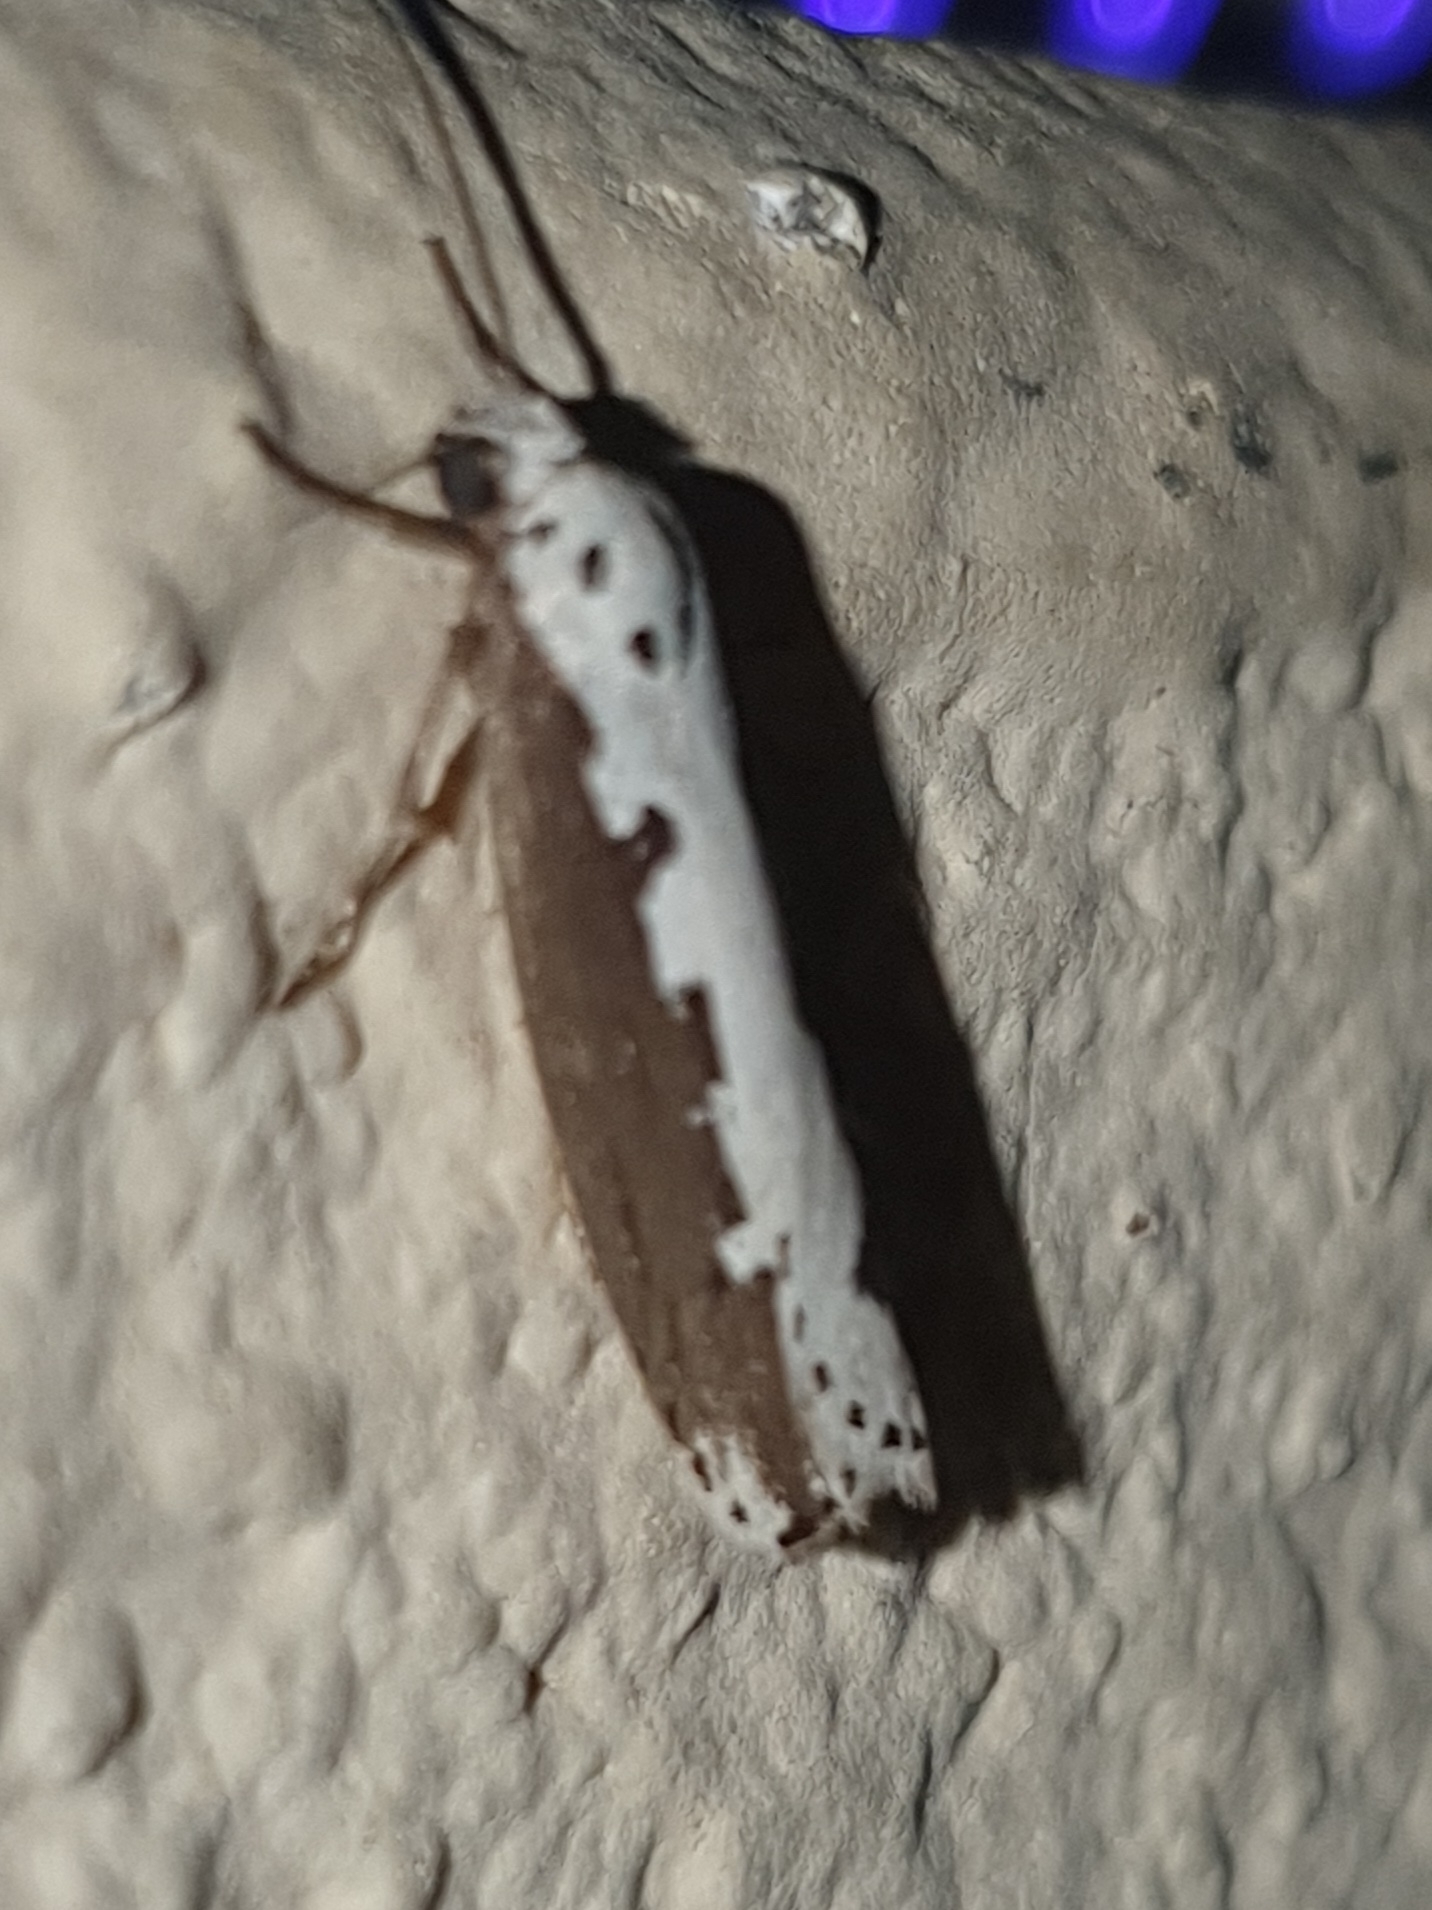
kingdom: Animalia
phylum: Arthropoda
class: Insecta
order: Lepidoptera
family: Ethmiidae
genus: Ethmia
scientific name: Ethmia bipunctella
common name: Bordered ermel
